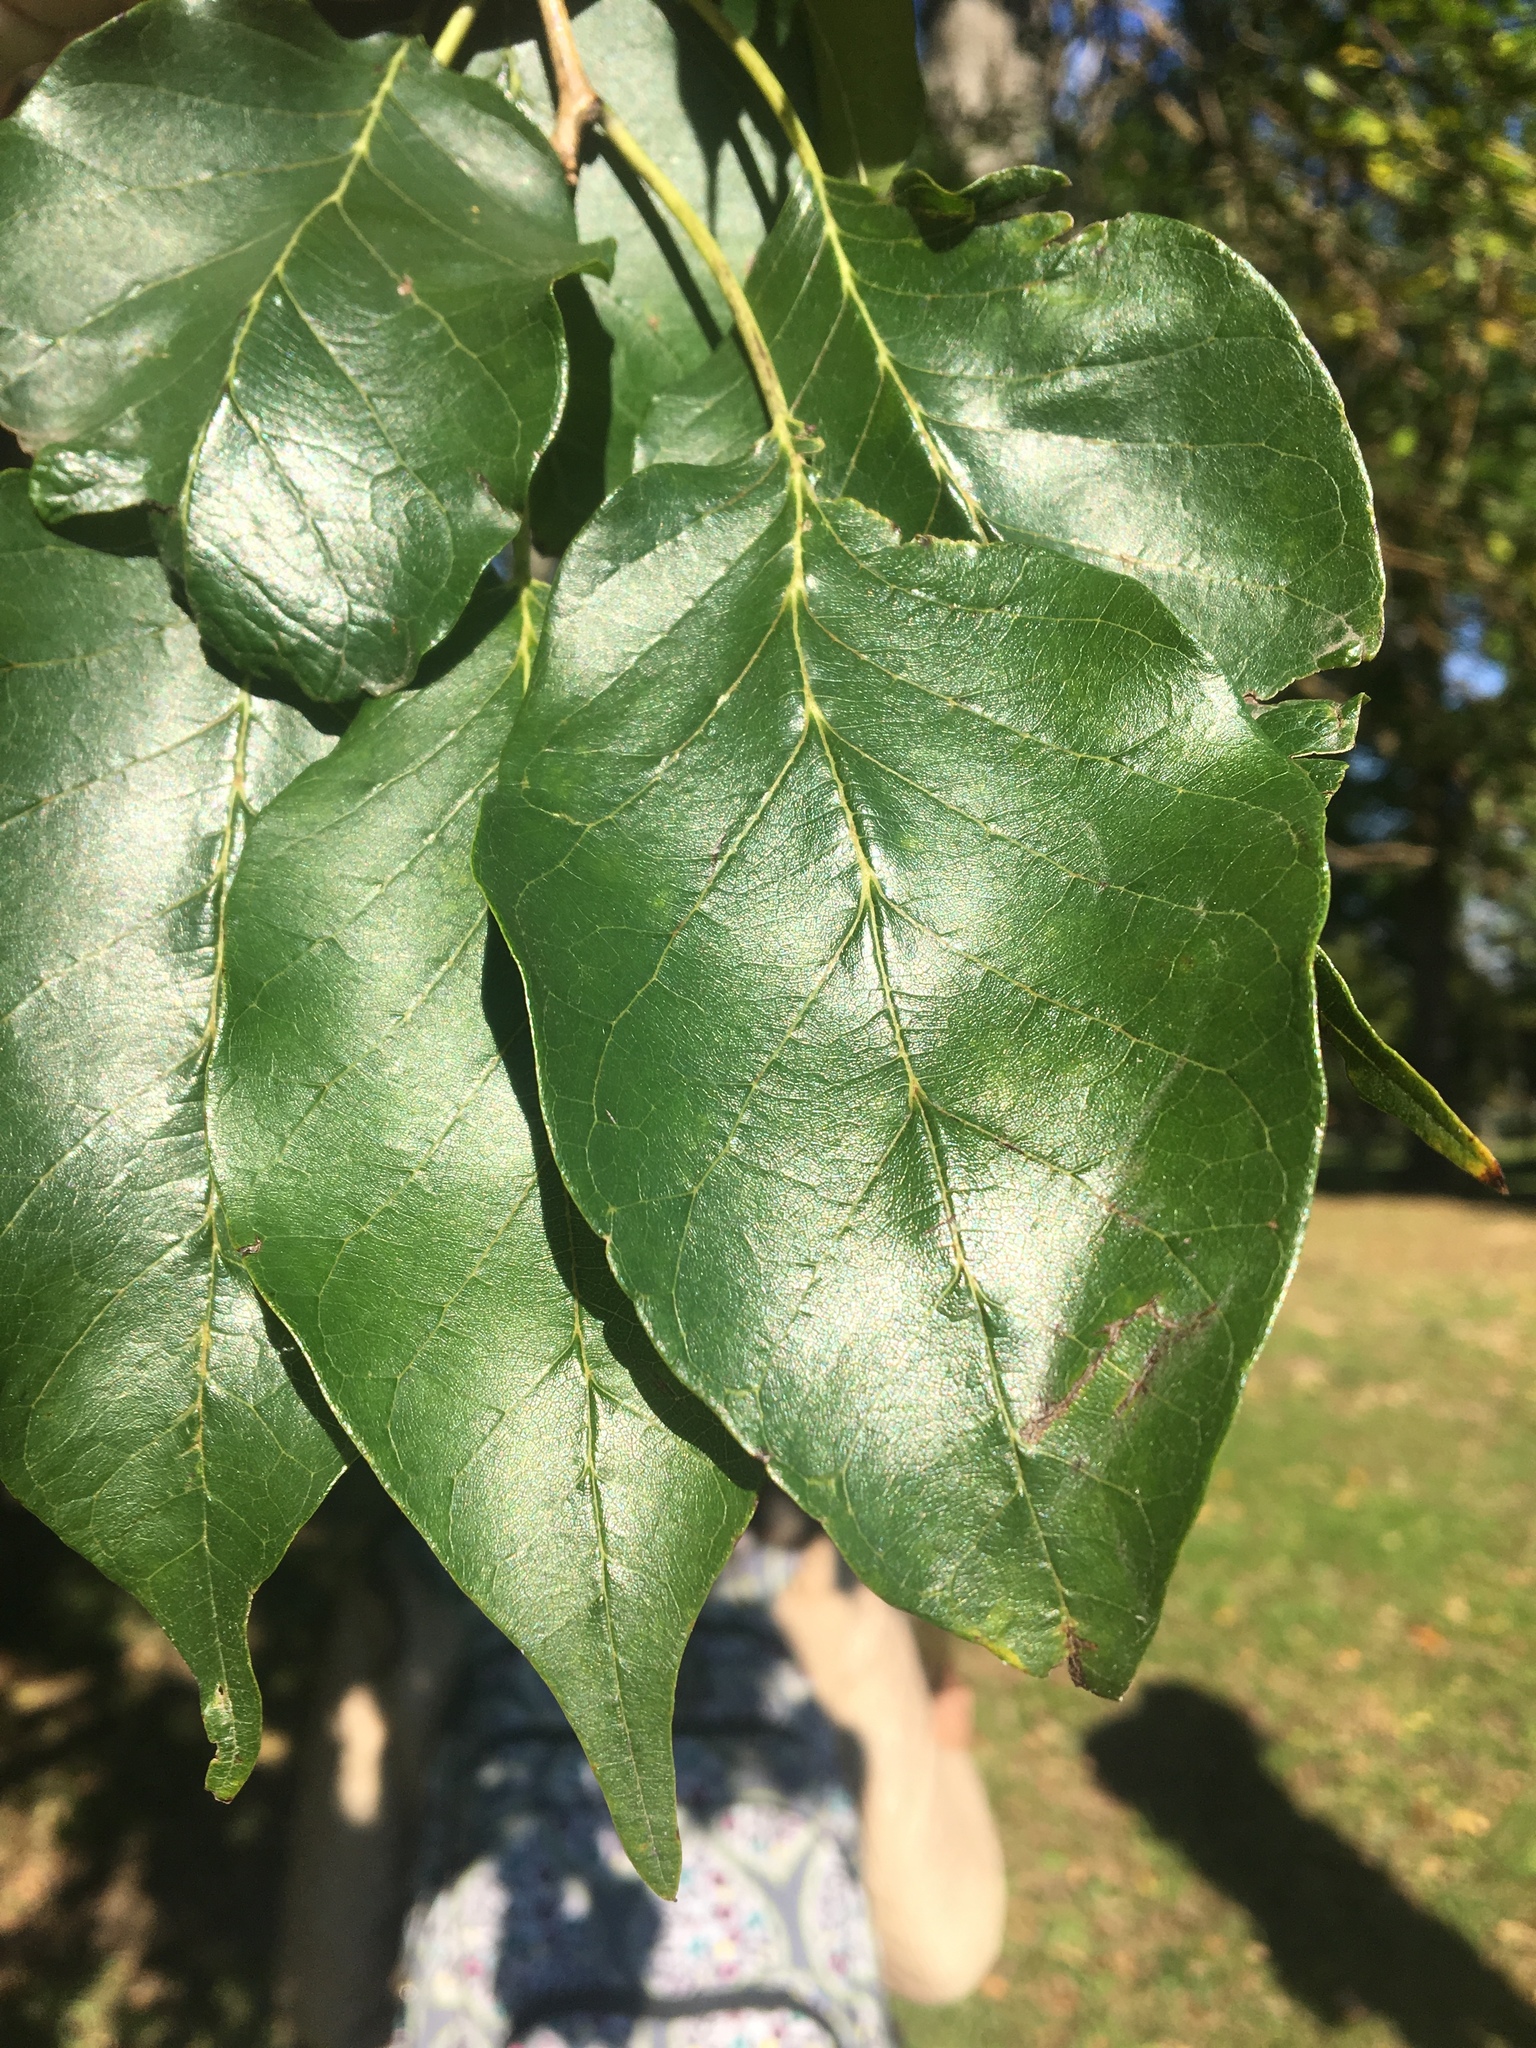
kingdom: Plantae
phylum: Tracheophyta
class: Magnoliopsida
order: Rosales
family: Moraceae
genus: Maclura
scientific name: Maclura pomifera
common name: Osage-orange
